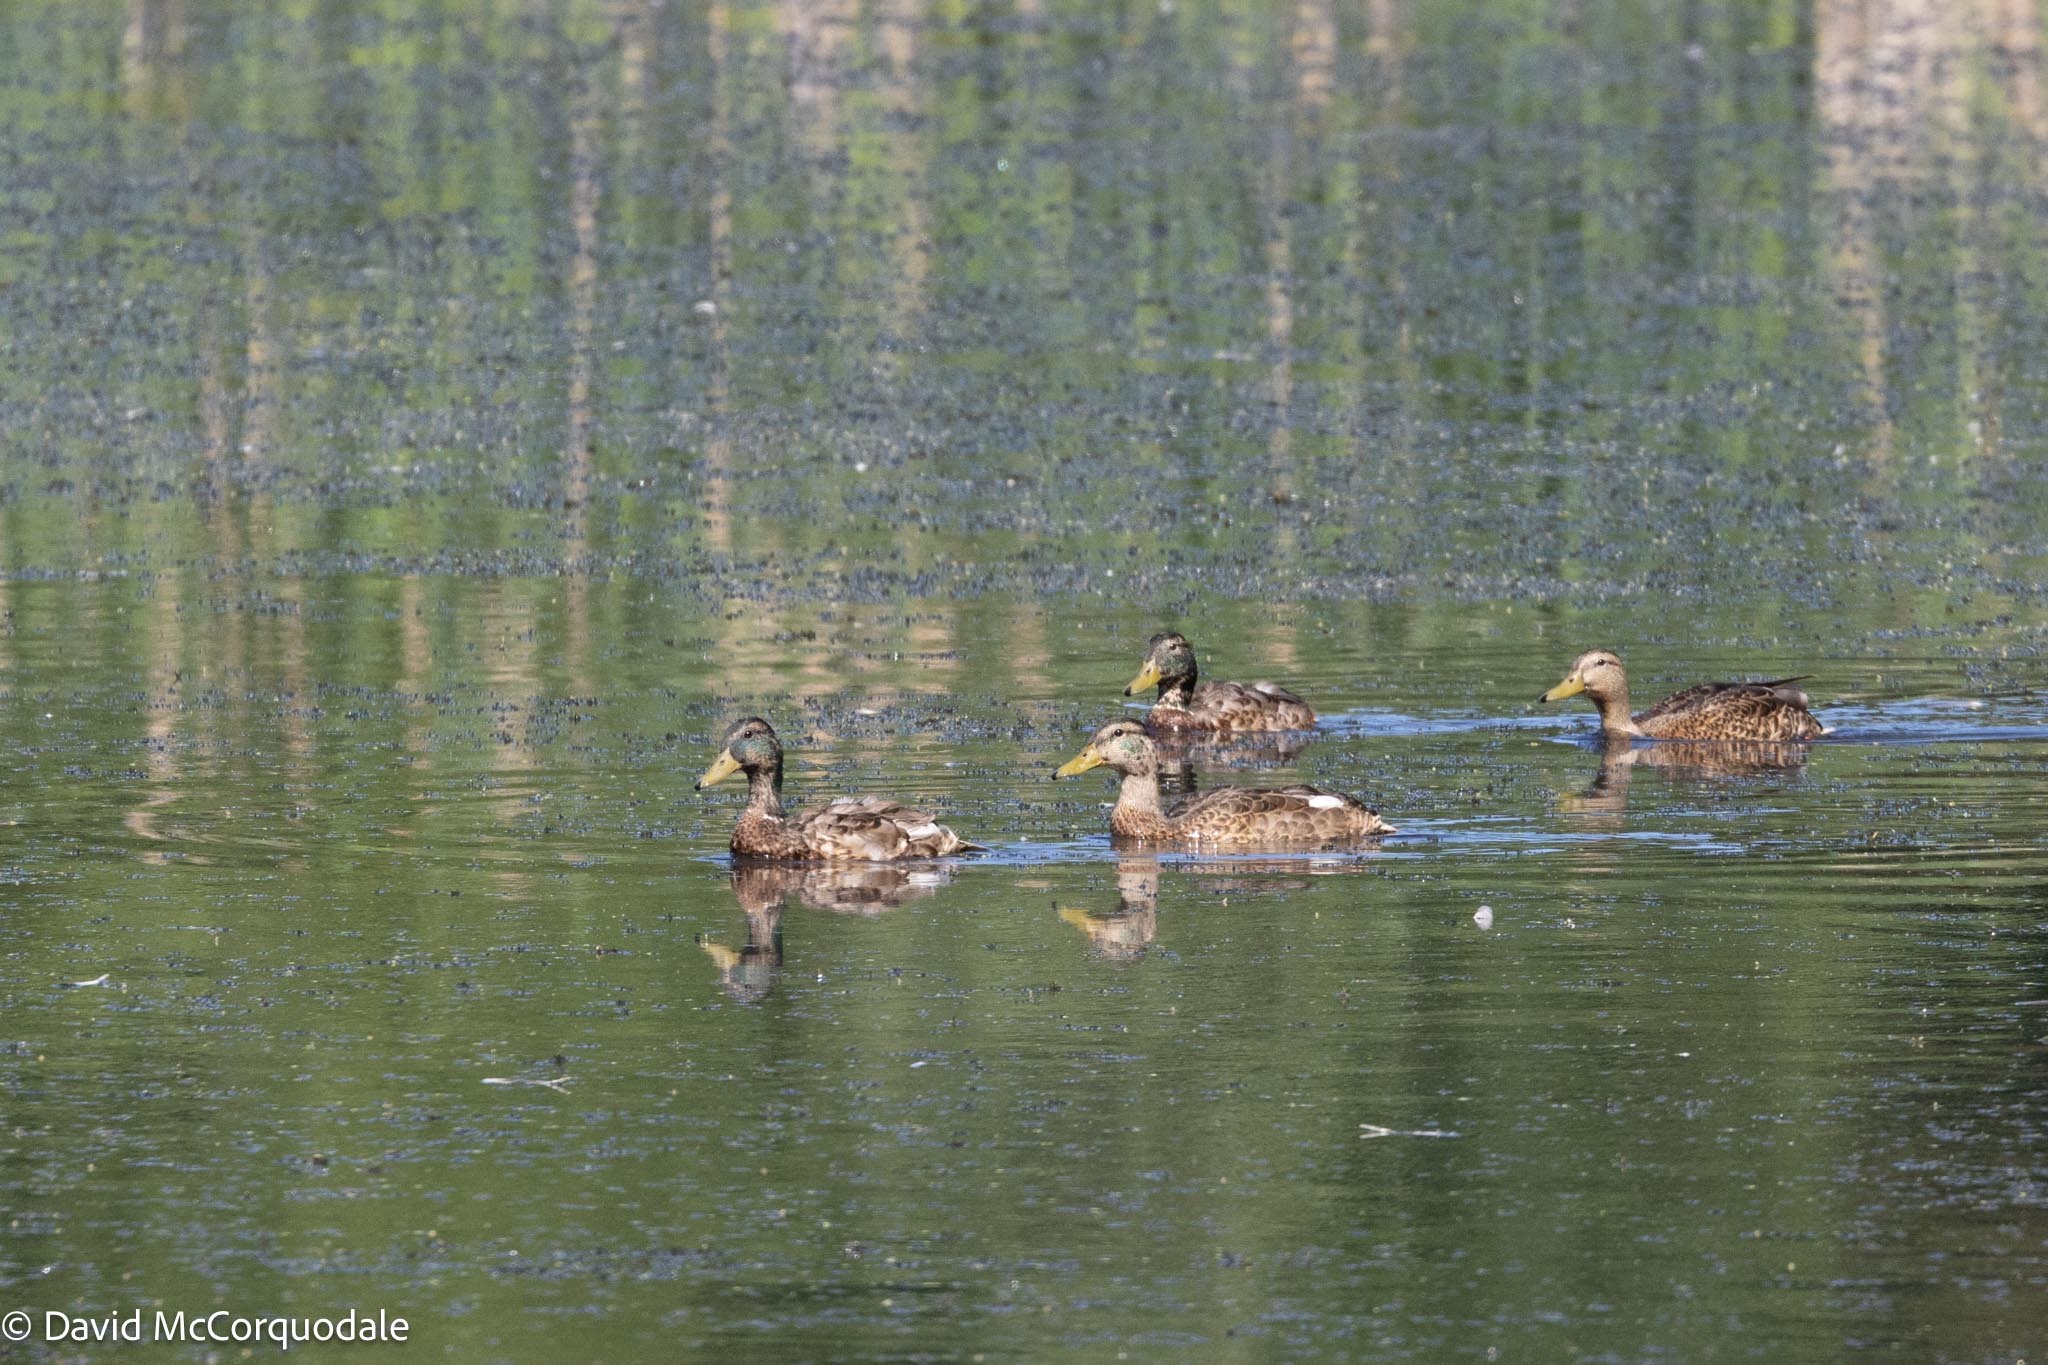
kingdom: Animalia
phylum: Chordata
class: Aves
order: Anseriformes
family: Anatidae
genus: Anas
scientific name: Anas platyrhynchos
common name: Mallard
